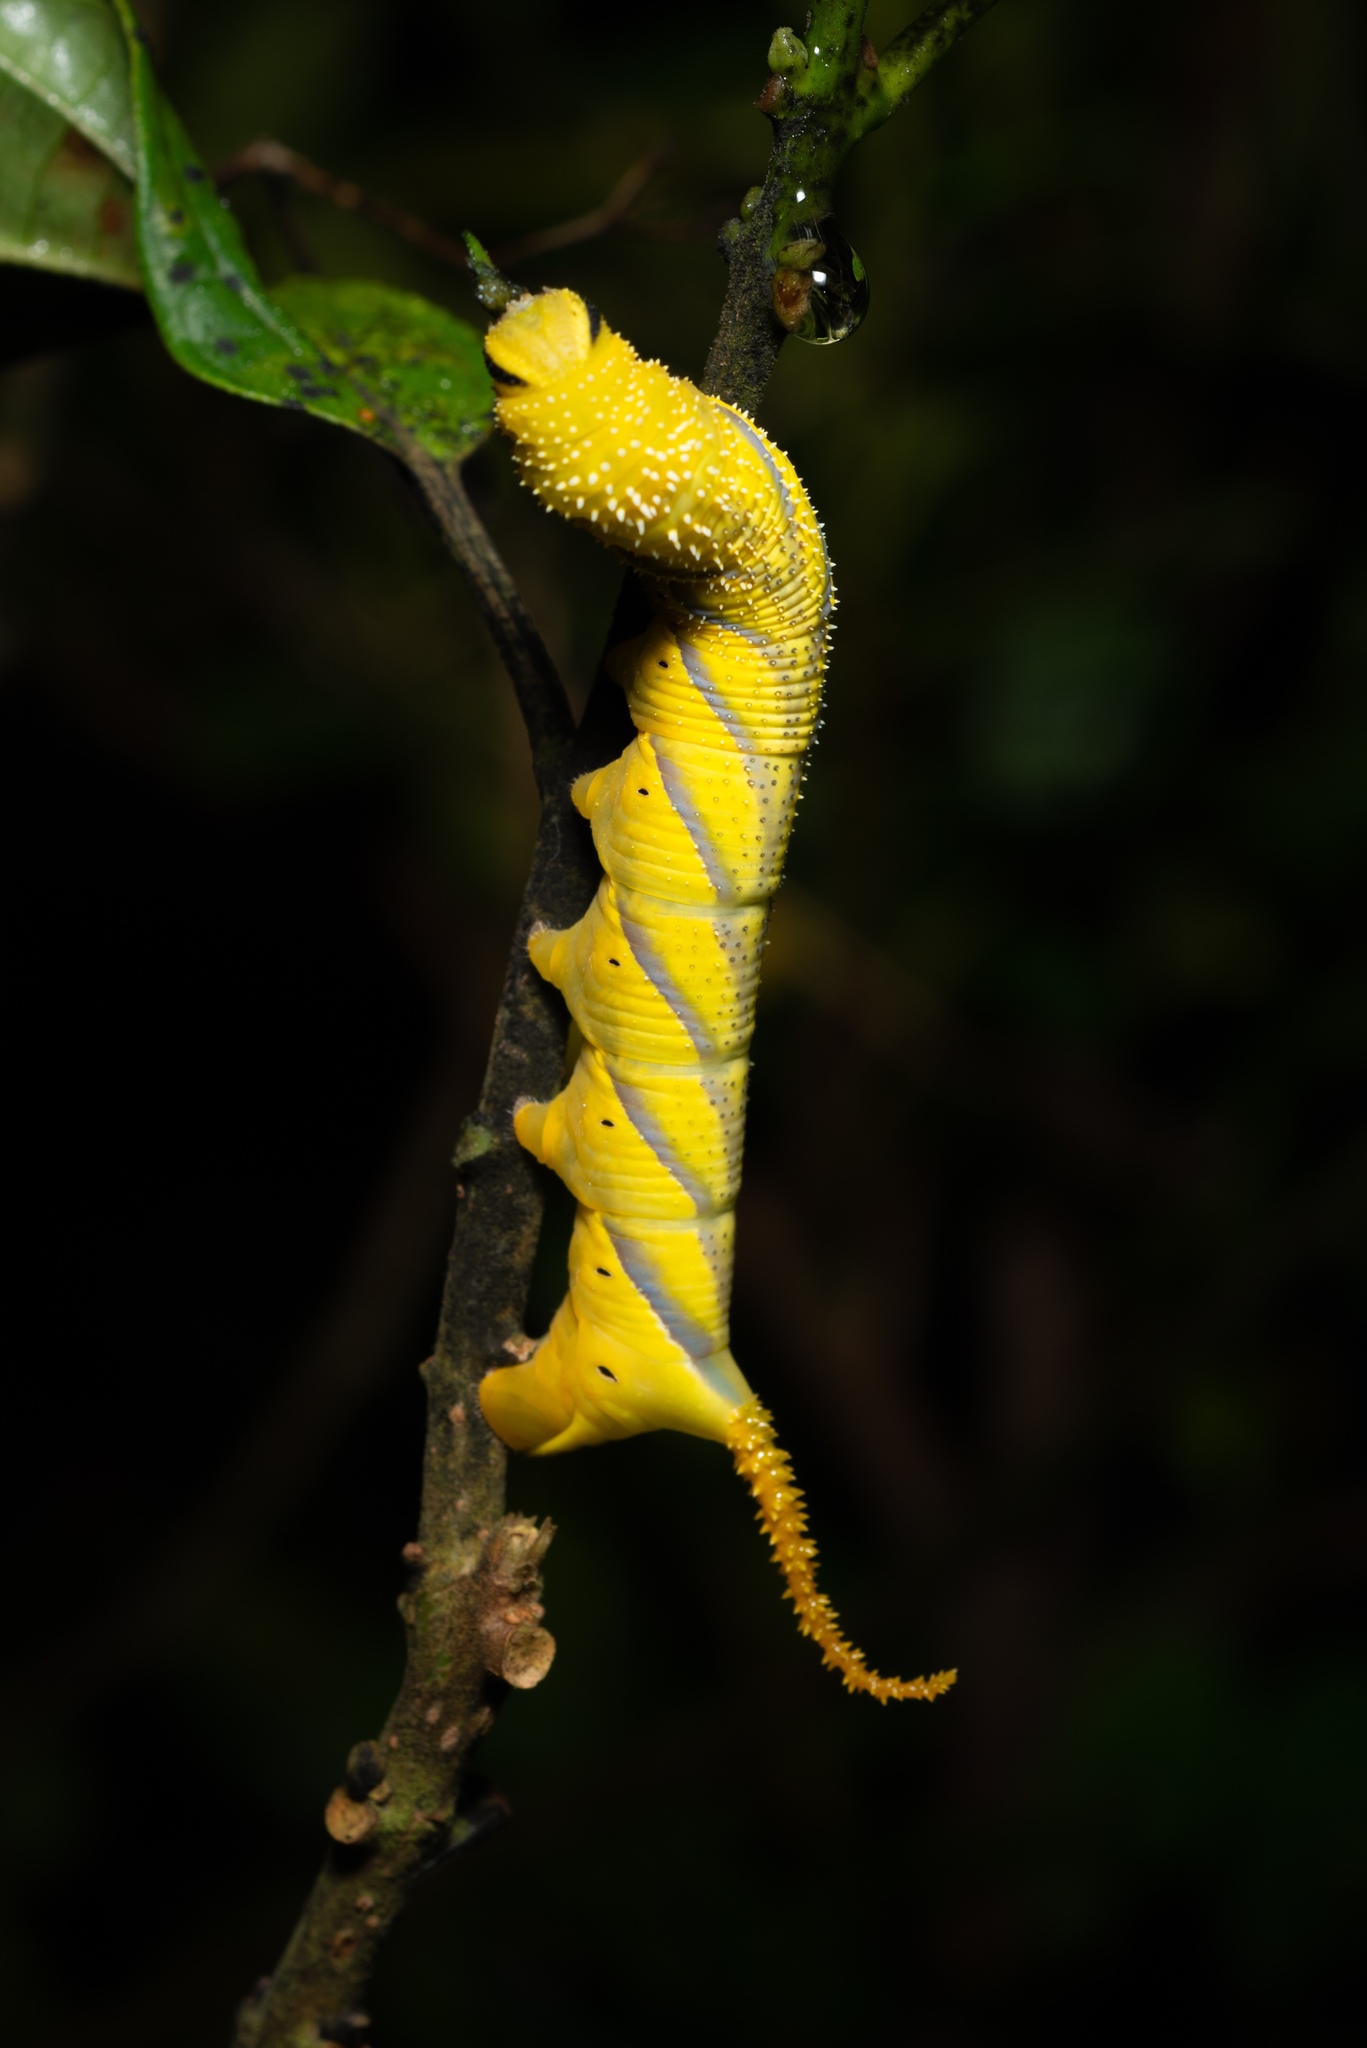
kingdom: Animalia
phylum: Arthropoda
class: Insecta
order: Lepidoptera
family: Sphingidae
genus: Acherontia
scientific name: Acherontia lachesis
